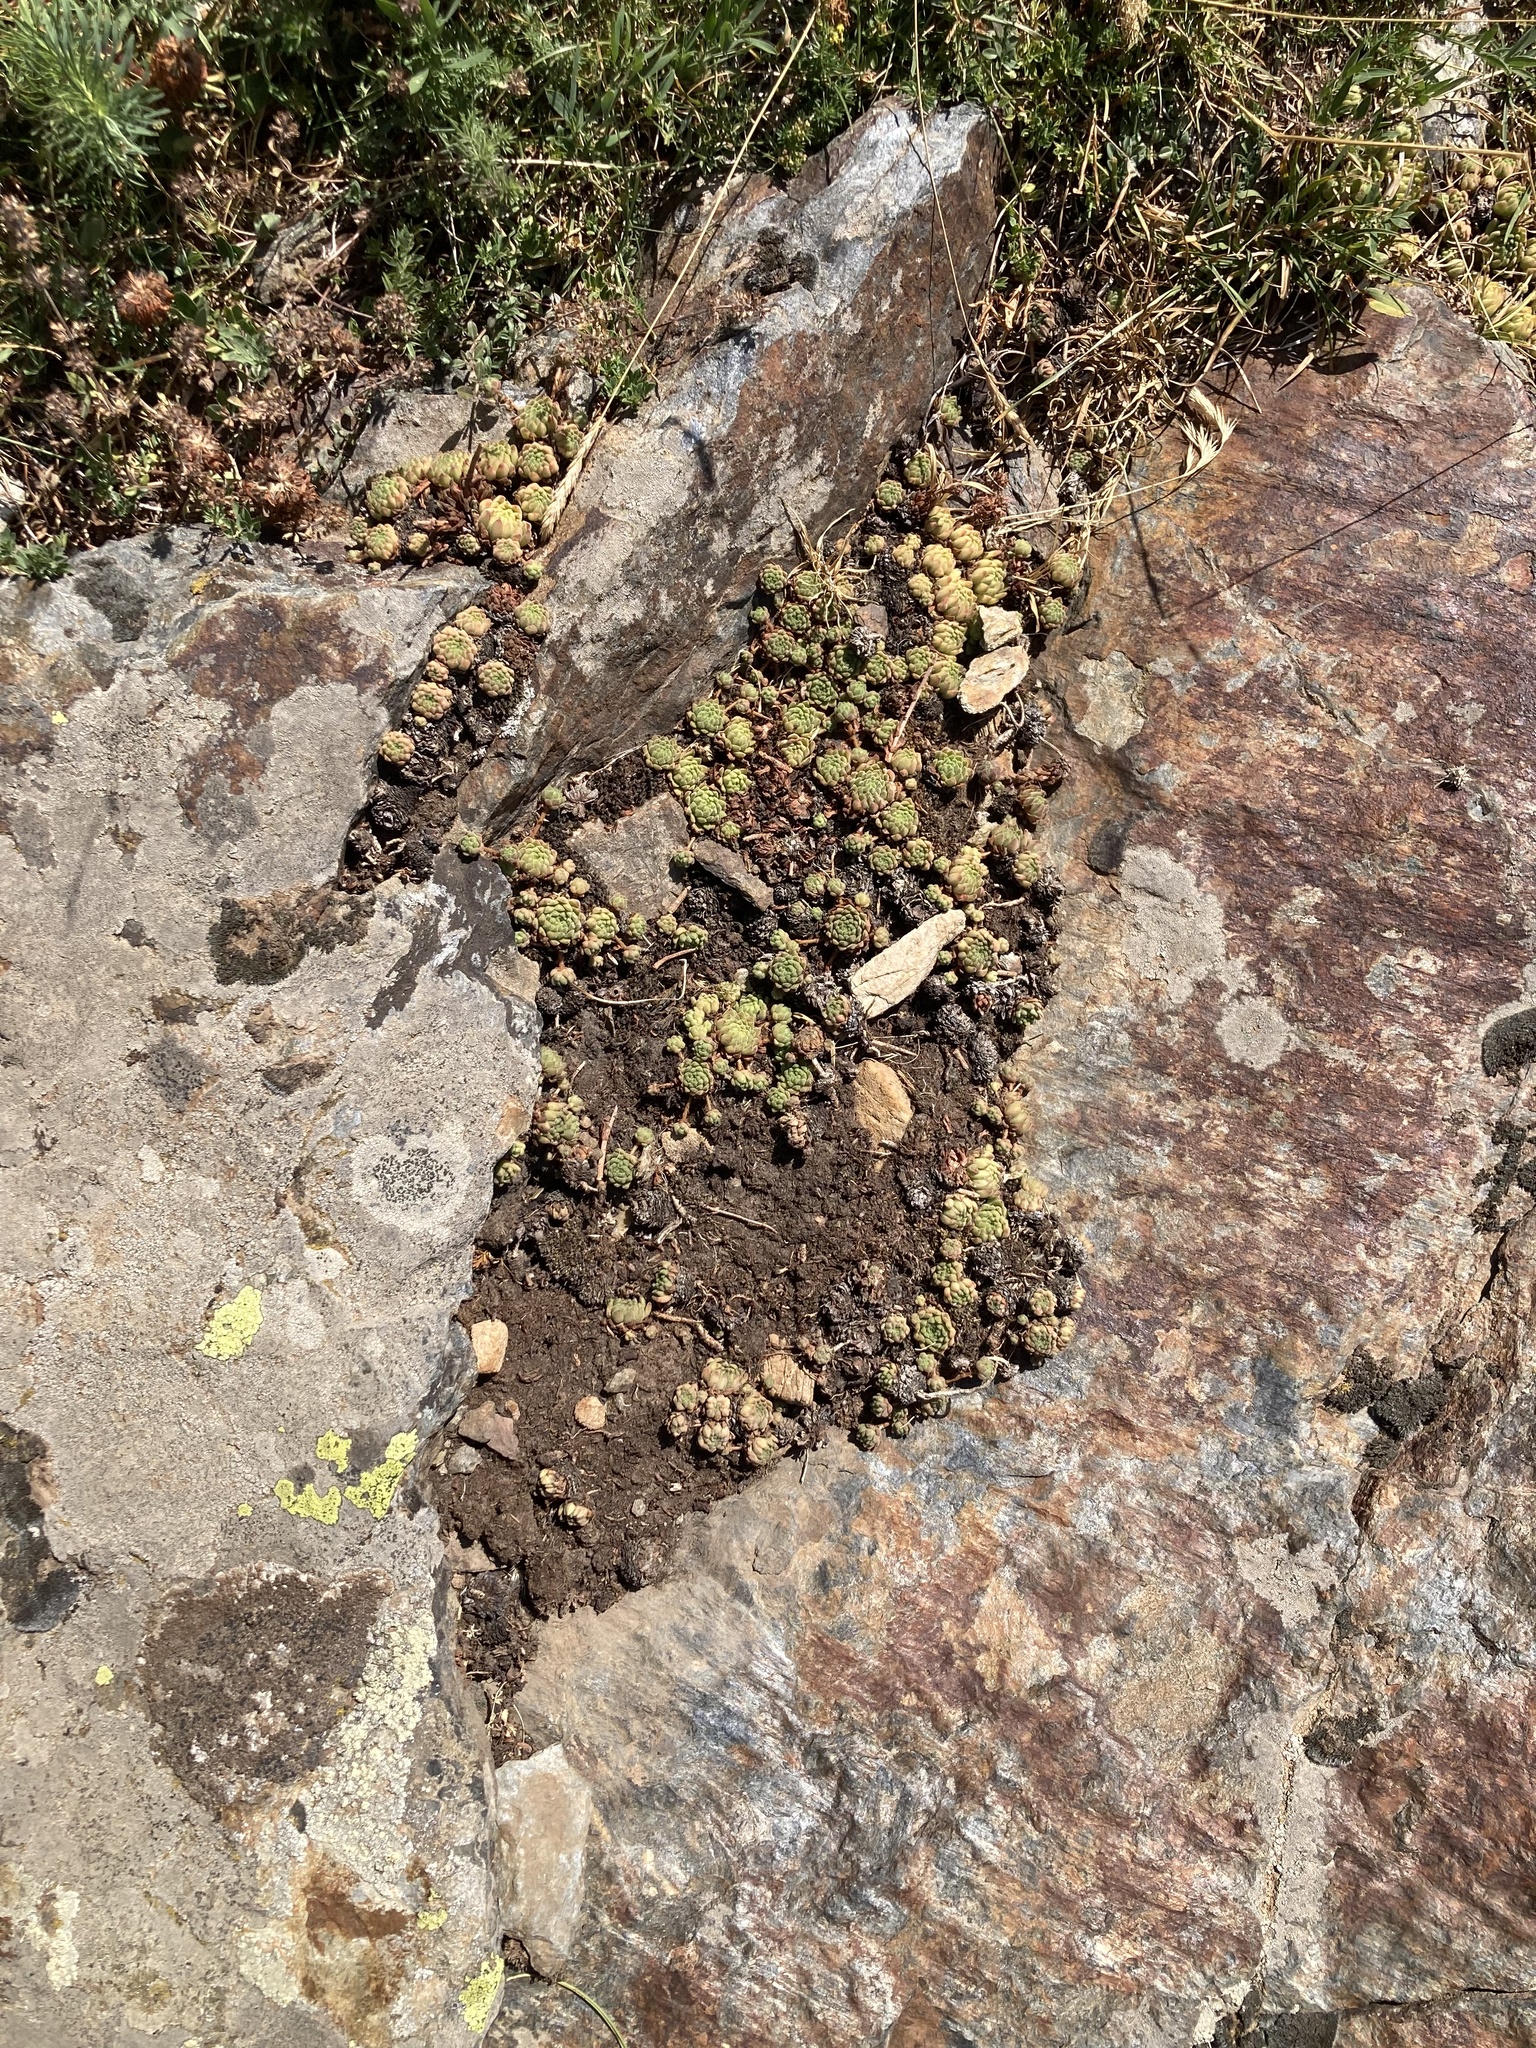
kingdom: Plantae
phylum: Tracheophyta
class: Magnoliopsida
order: Saxifragales
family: Crassulaceae
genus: Sempervivum
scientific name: Sempervivum montanum
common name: Mountain house-leek
